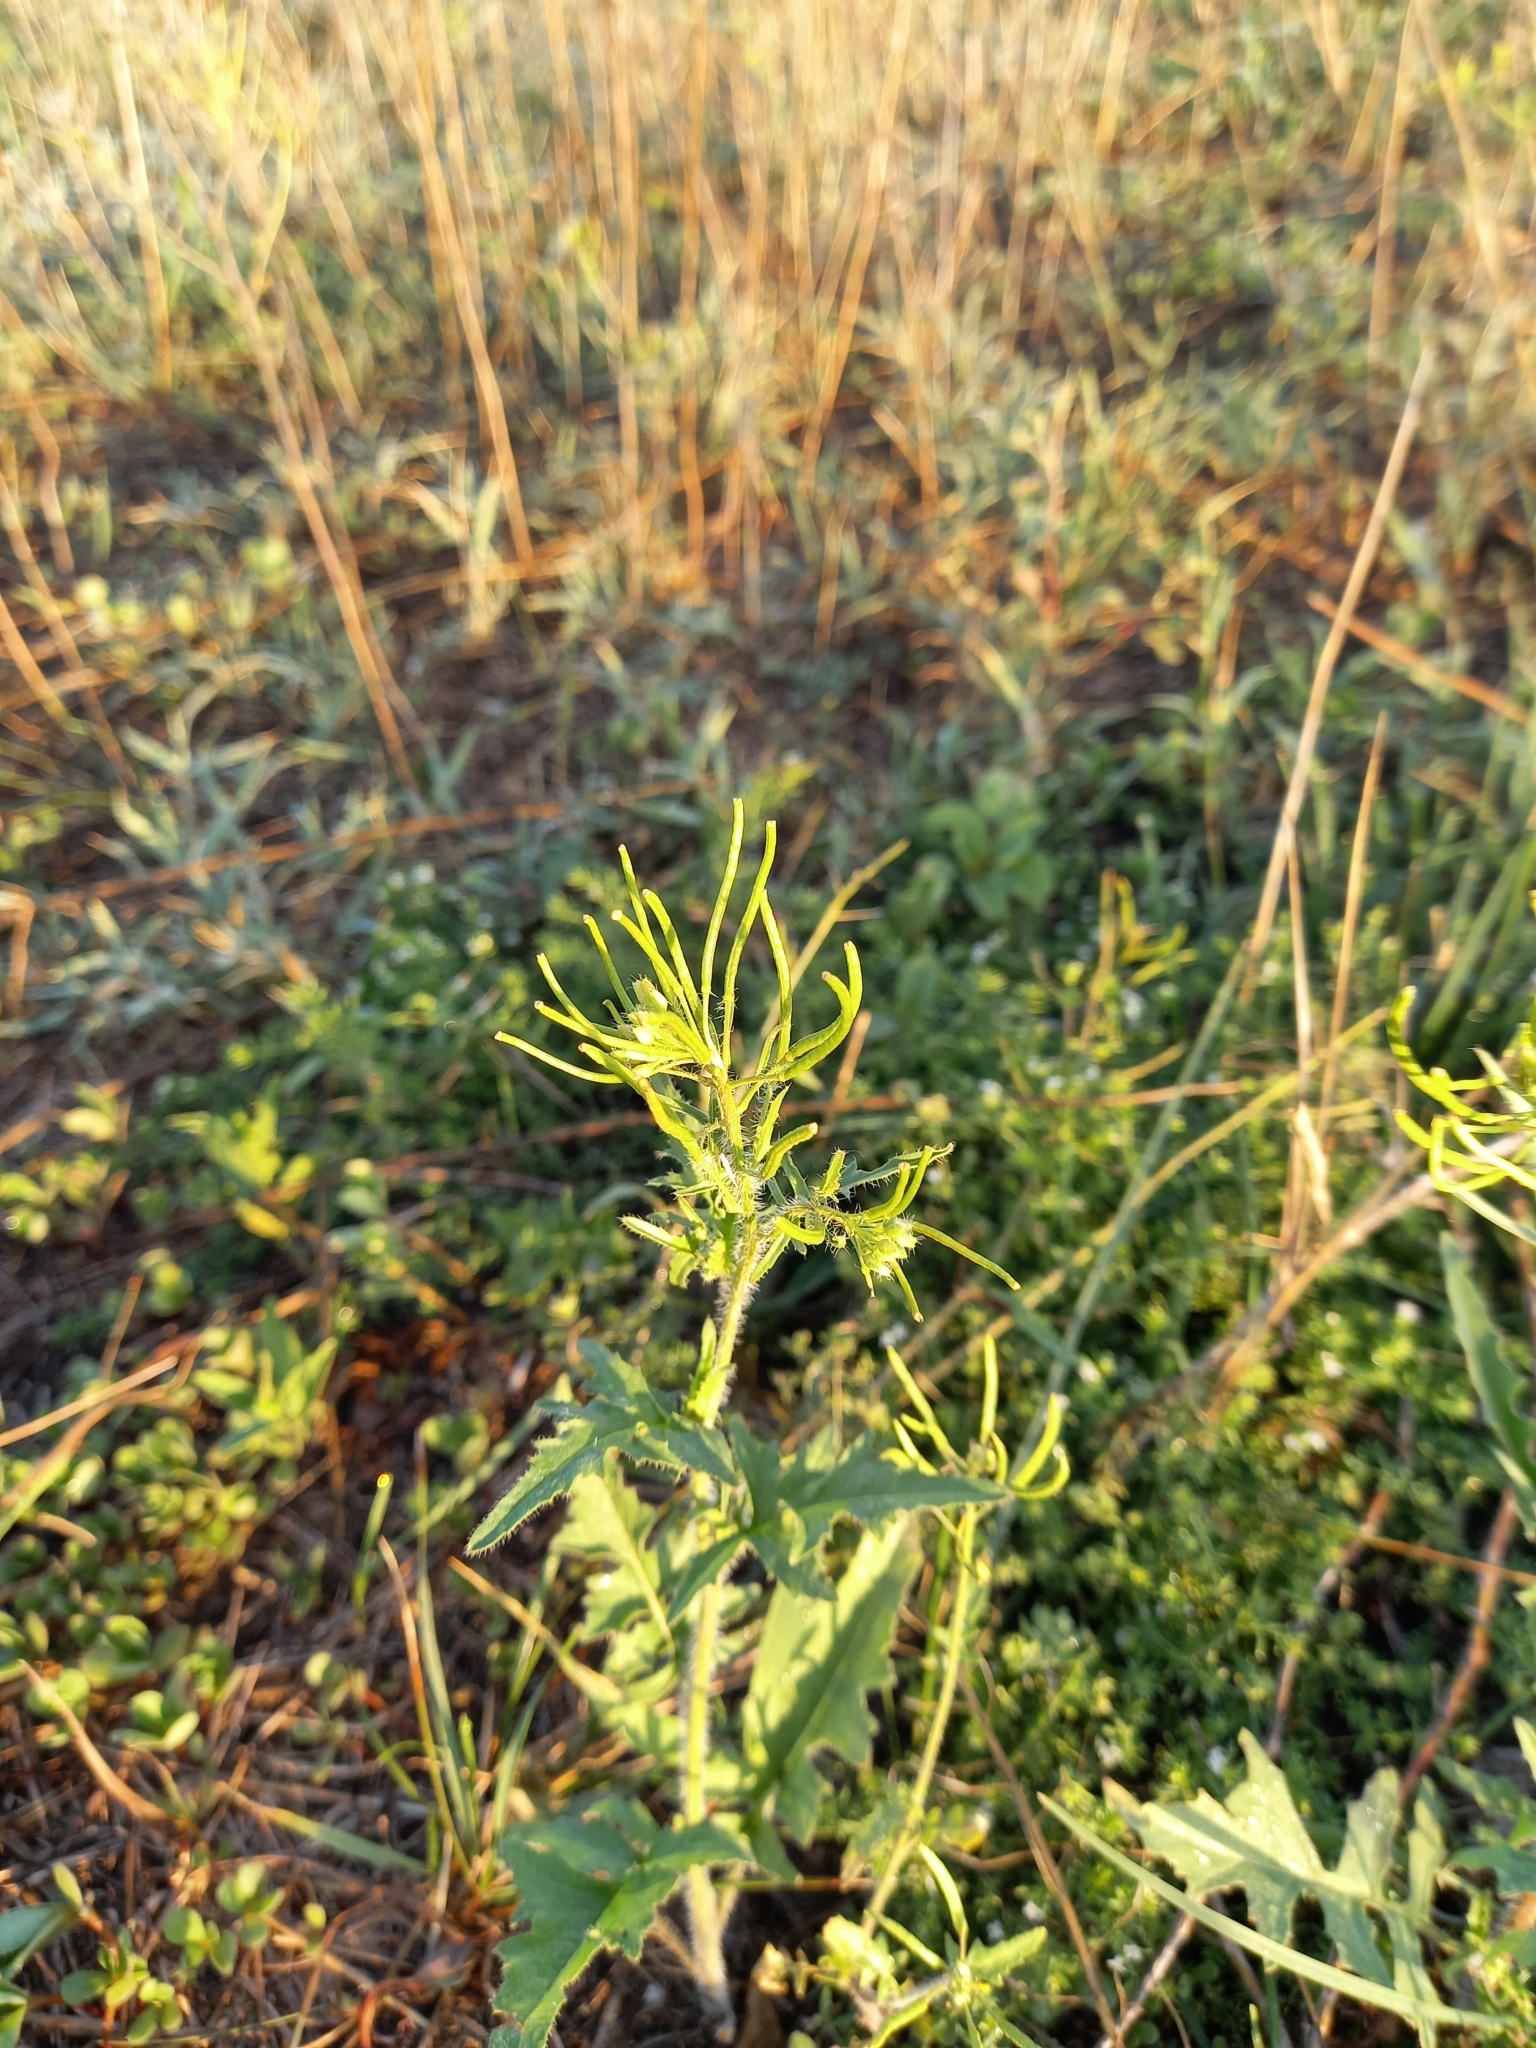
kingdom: Plantae
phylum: Tracheophyta
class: Magnoliopsida
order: Brassicales
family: Brassicaceae
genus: Sisymbrium
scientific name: Sisymbrium loeselii
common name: False london-rocket
